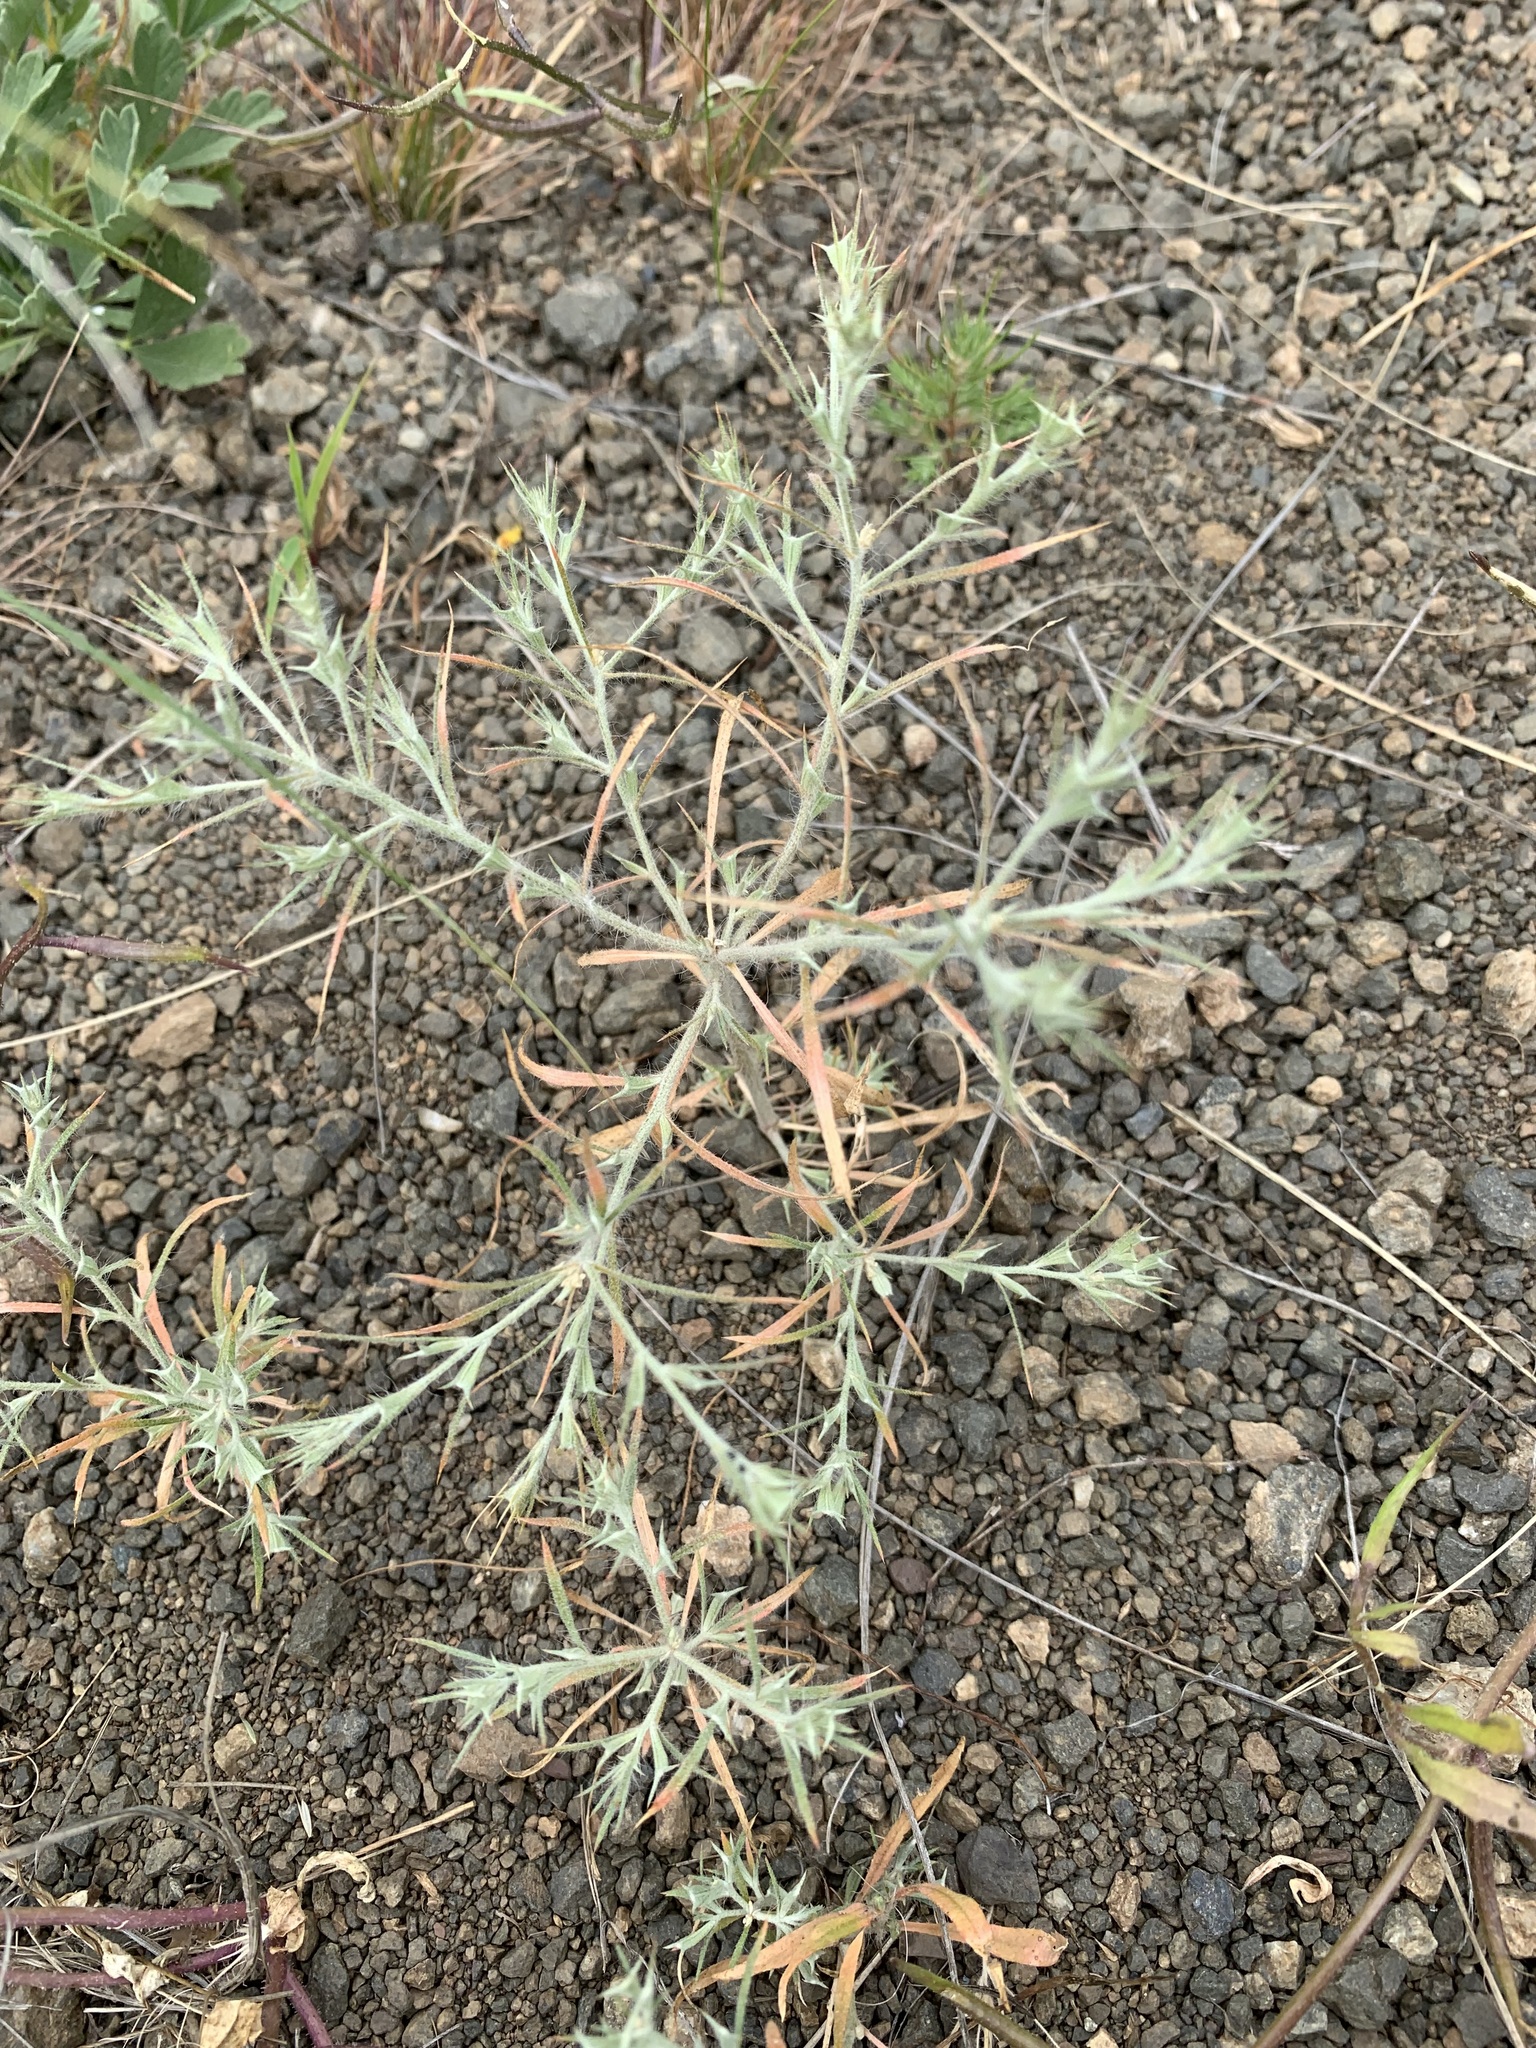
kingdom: Plantae
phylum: Tracheophyta
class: Magnoliopsida
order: Caryophyllales
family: Amaranthaceae
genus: Ceratocarpus
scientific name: Ceratocarpus arenarius
